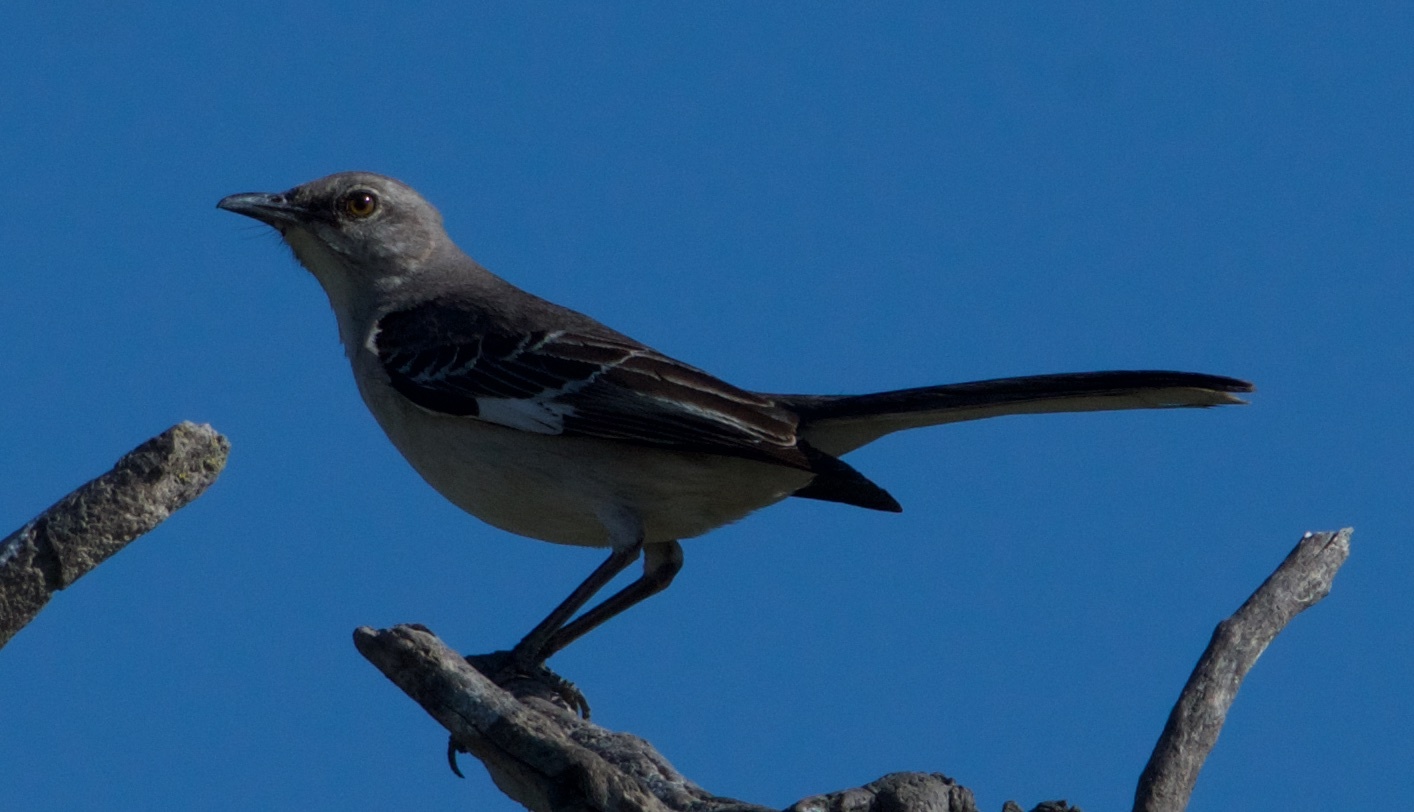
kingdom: Animalia
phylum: Chordata
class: Aves
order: Passeriformes
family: Mimidae
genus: Mimus
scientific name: Mimus polyglottos
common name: Northern mockingbird
